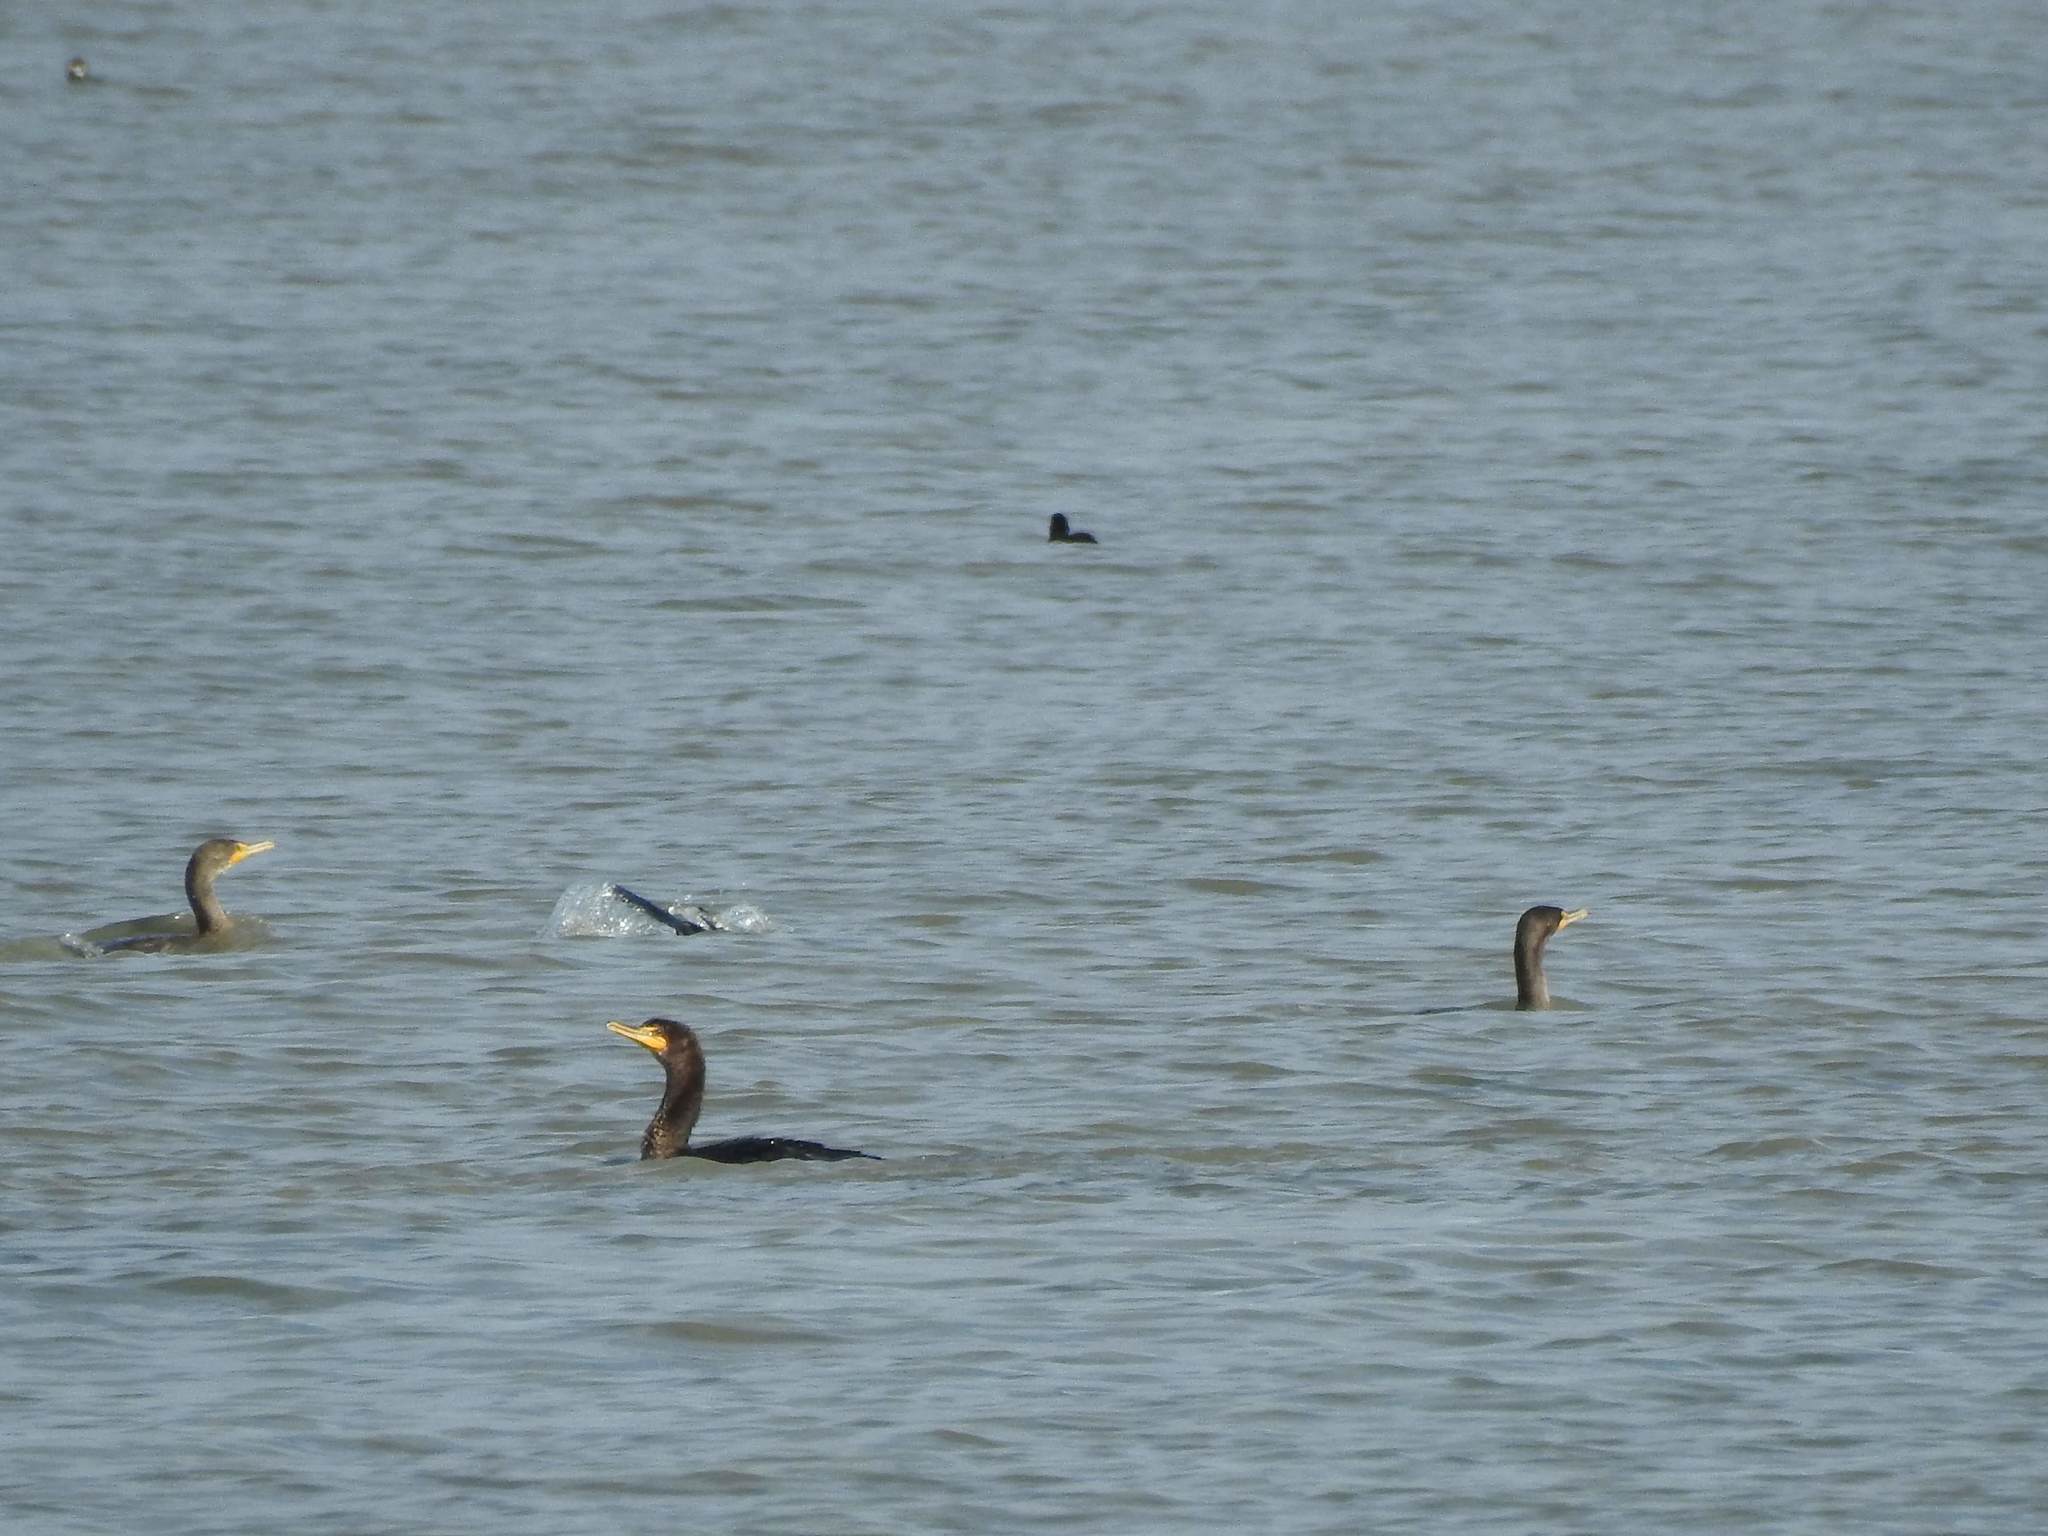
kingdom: Animalia
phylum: Chordata
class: Aves
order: Suliformes
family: Phalacrocoracidae
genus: Phalacrocorax
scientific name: Phalacrocorax auritus
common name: Double-crested cormorant
